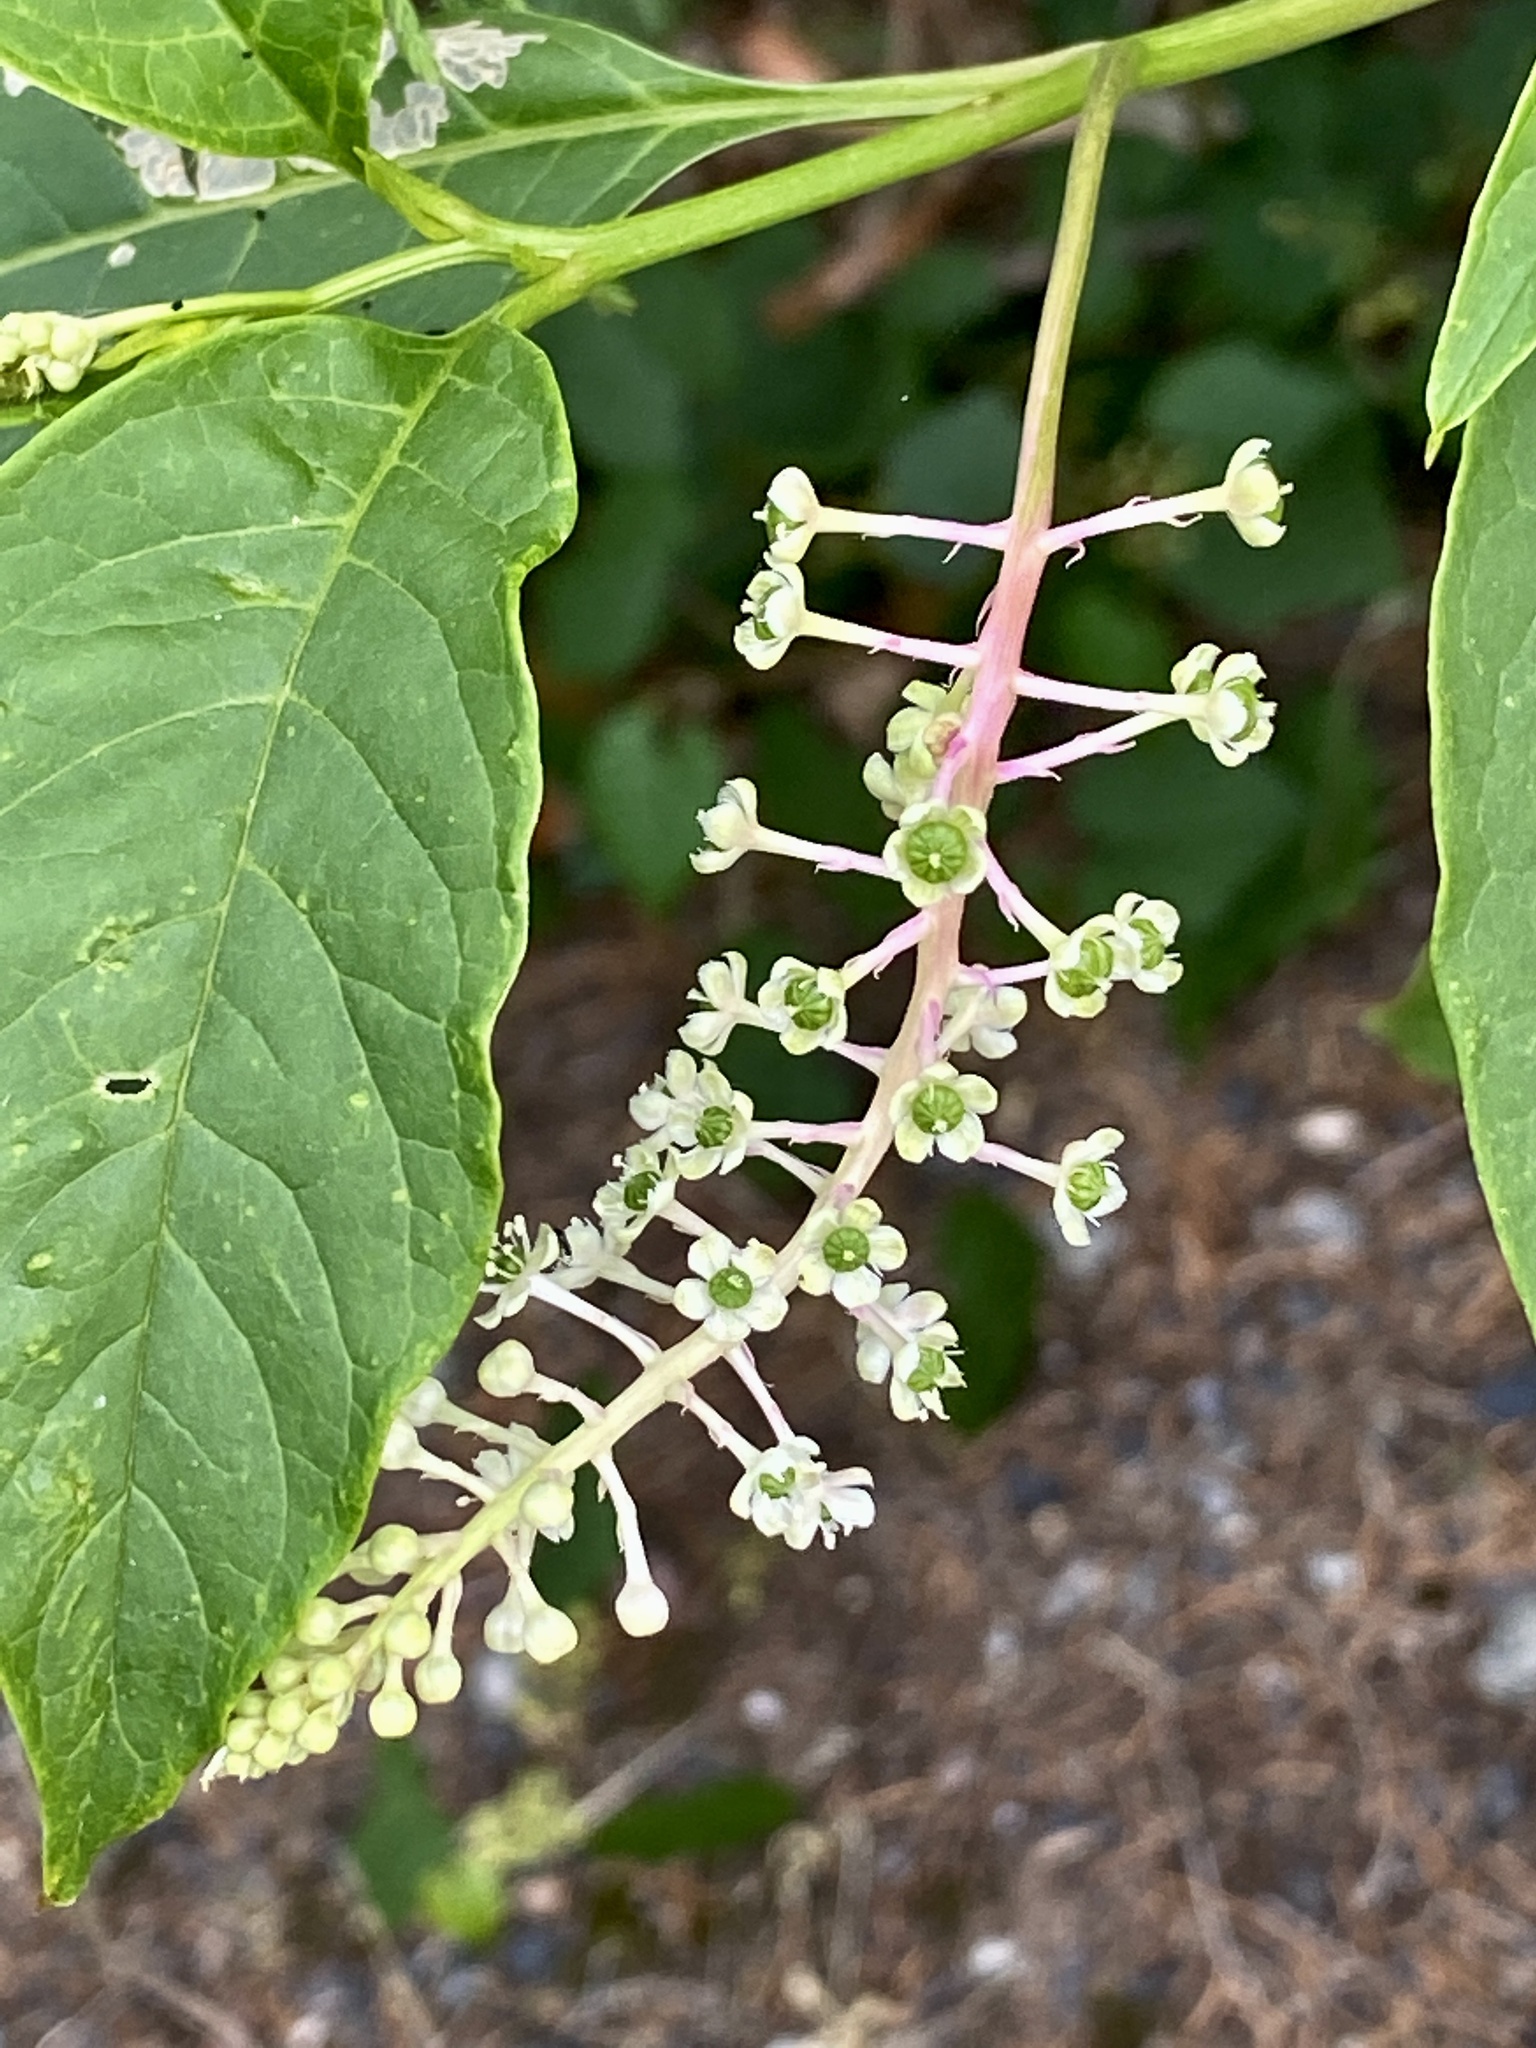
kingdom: Plantae
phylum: Tracheophyta
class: Magnoliopsida
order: Caryophyllales
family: Phytolaccaceae
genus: Phytolacca
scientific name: Phytolacca americana
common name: American pokeweed
